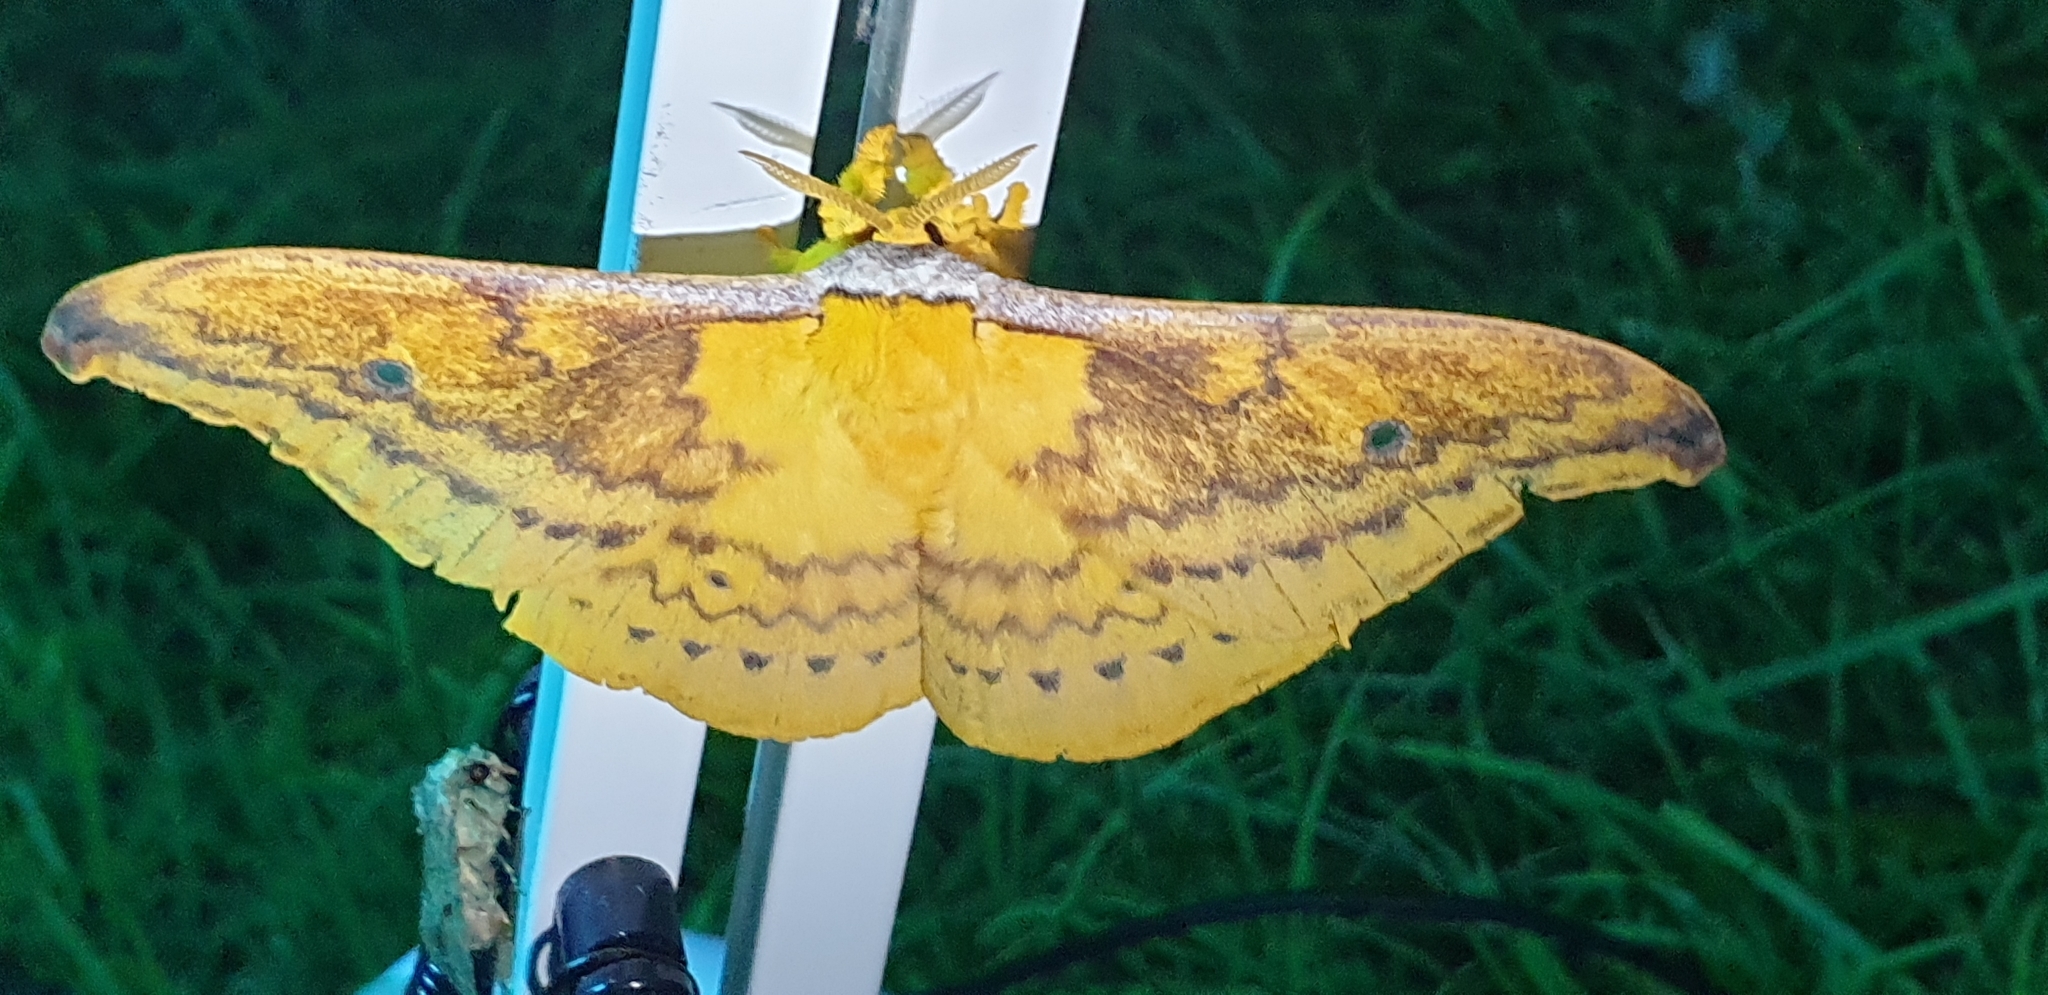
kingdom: Animalia
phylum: Arthropoda
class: Insecta
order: Lepidoptera
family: Saturniidae
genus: Syntherata
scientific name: Syntherata janetta
